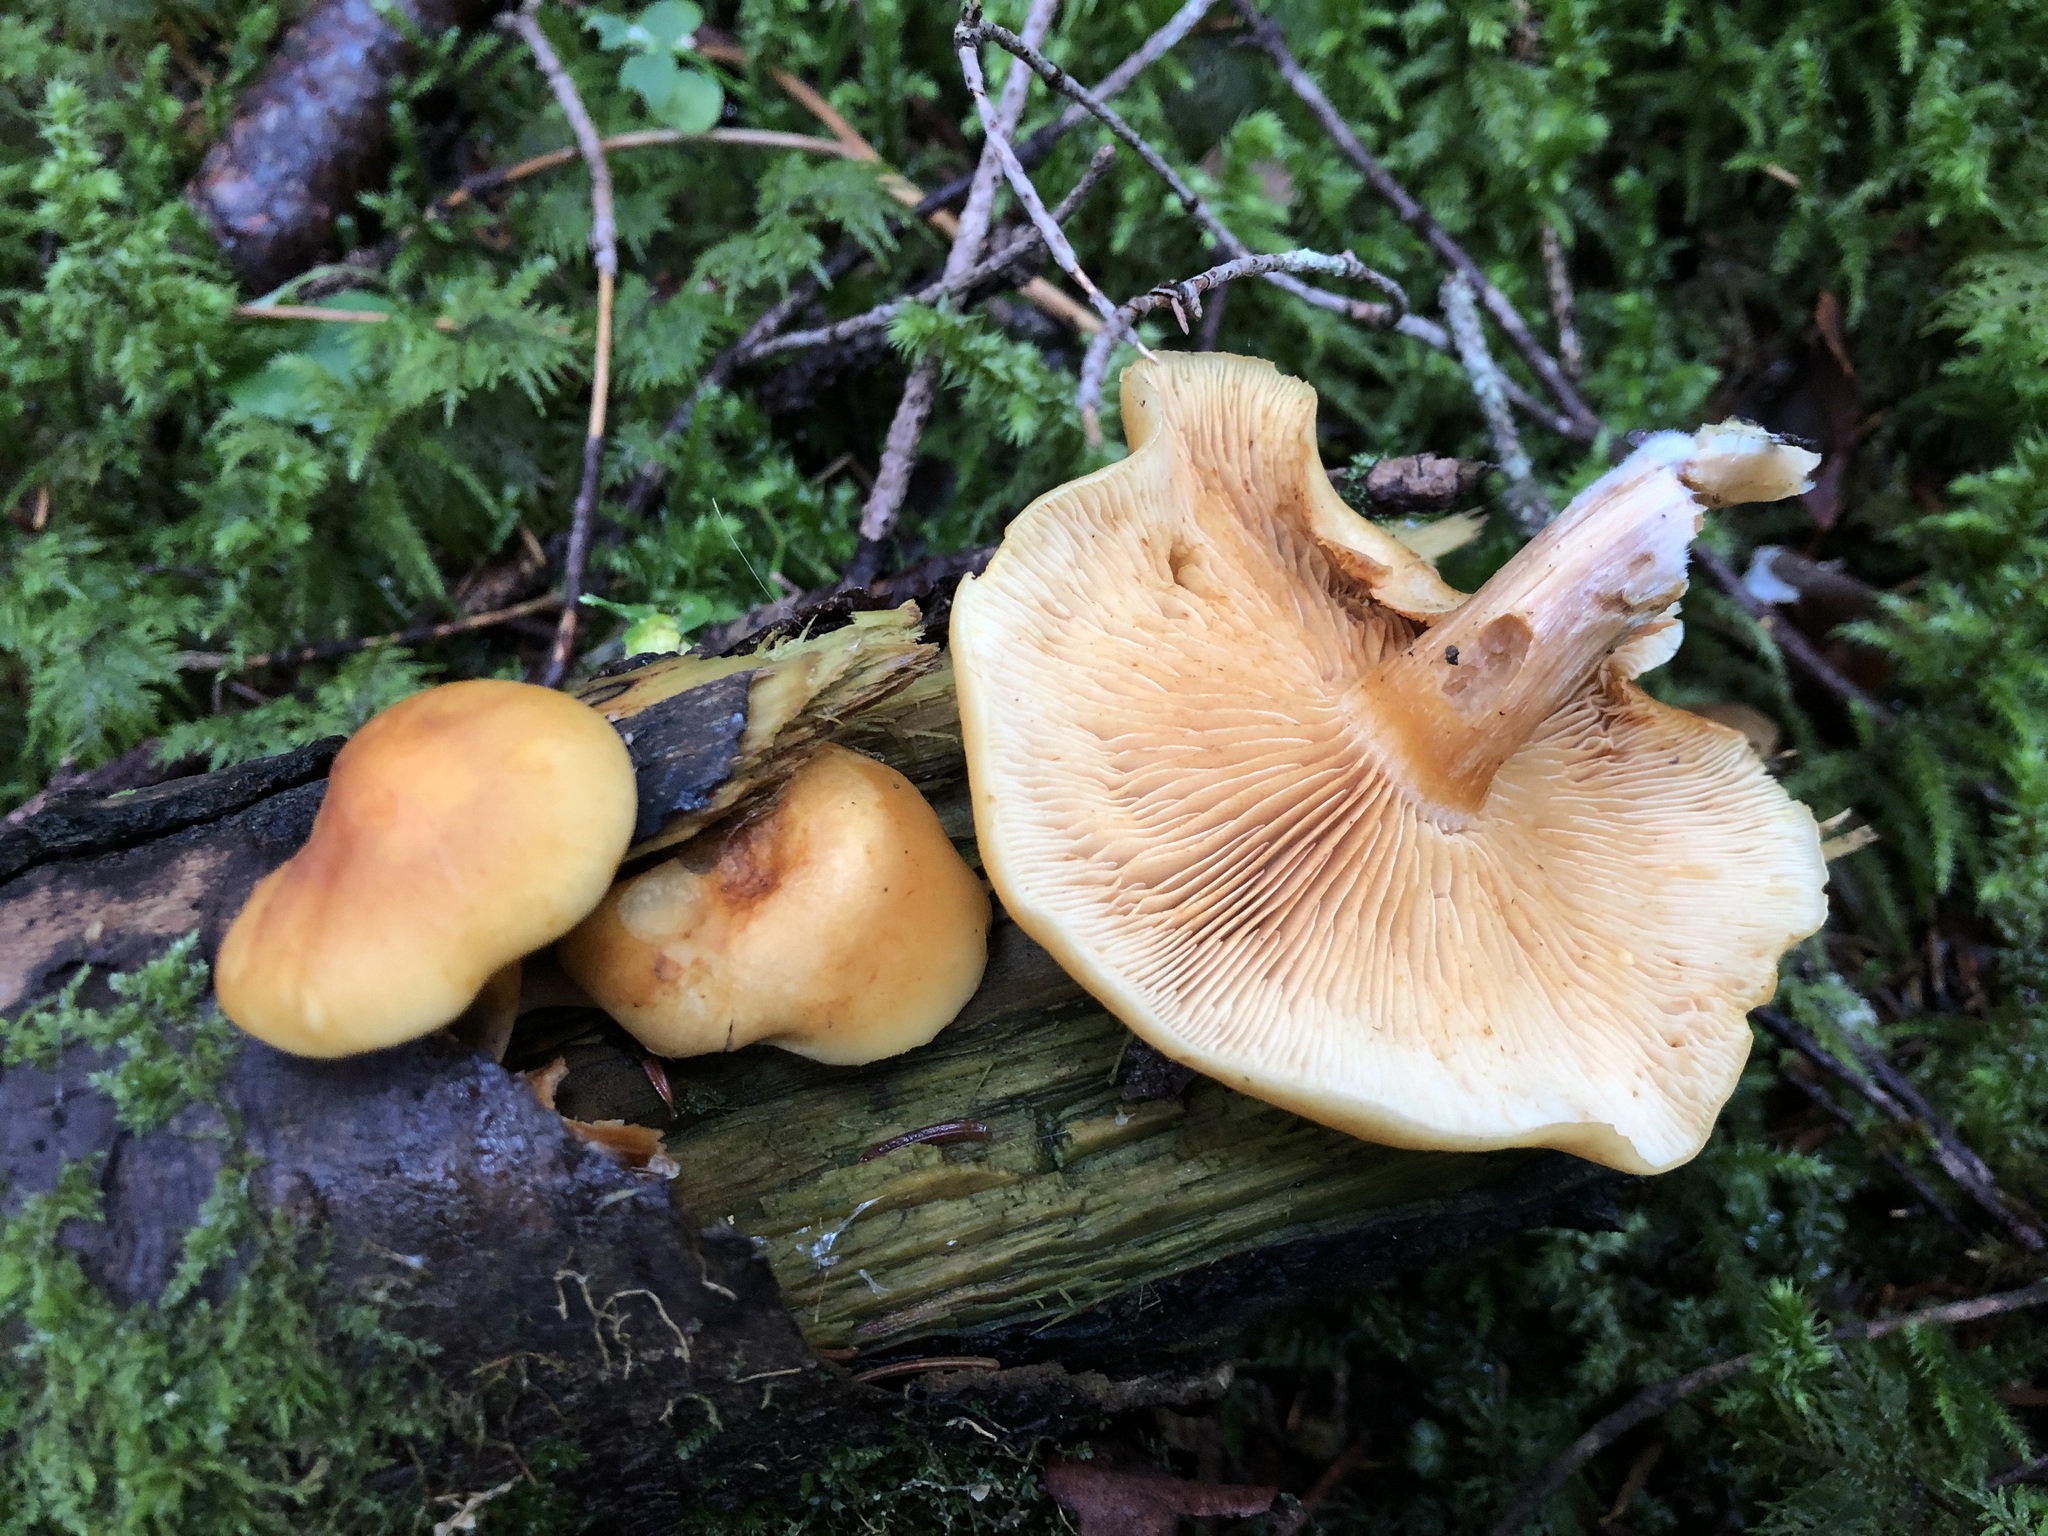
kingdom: Fungi
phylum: Basidiomycota
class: Agaricomycetes
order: Agaricales
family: Hymenogastraceae
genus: Gymnopilus
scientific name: Gymnopilus penetrans
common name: Common rustgill
